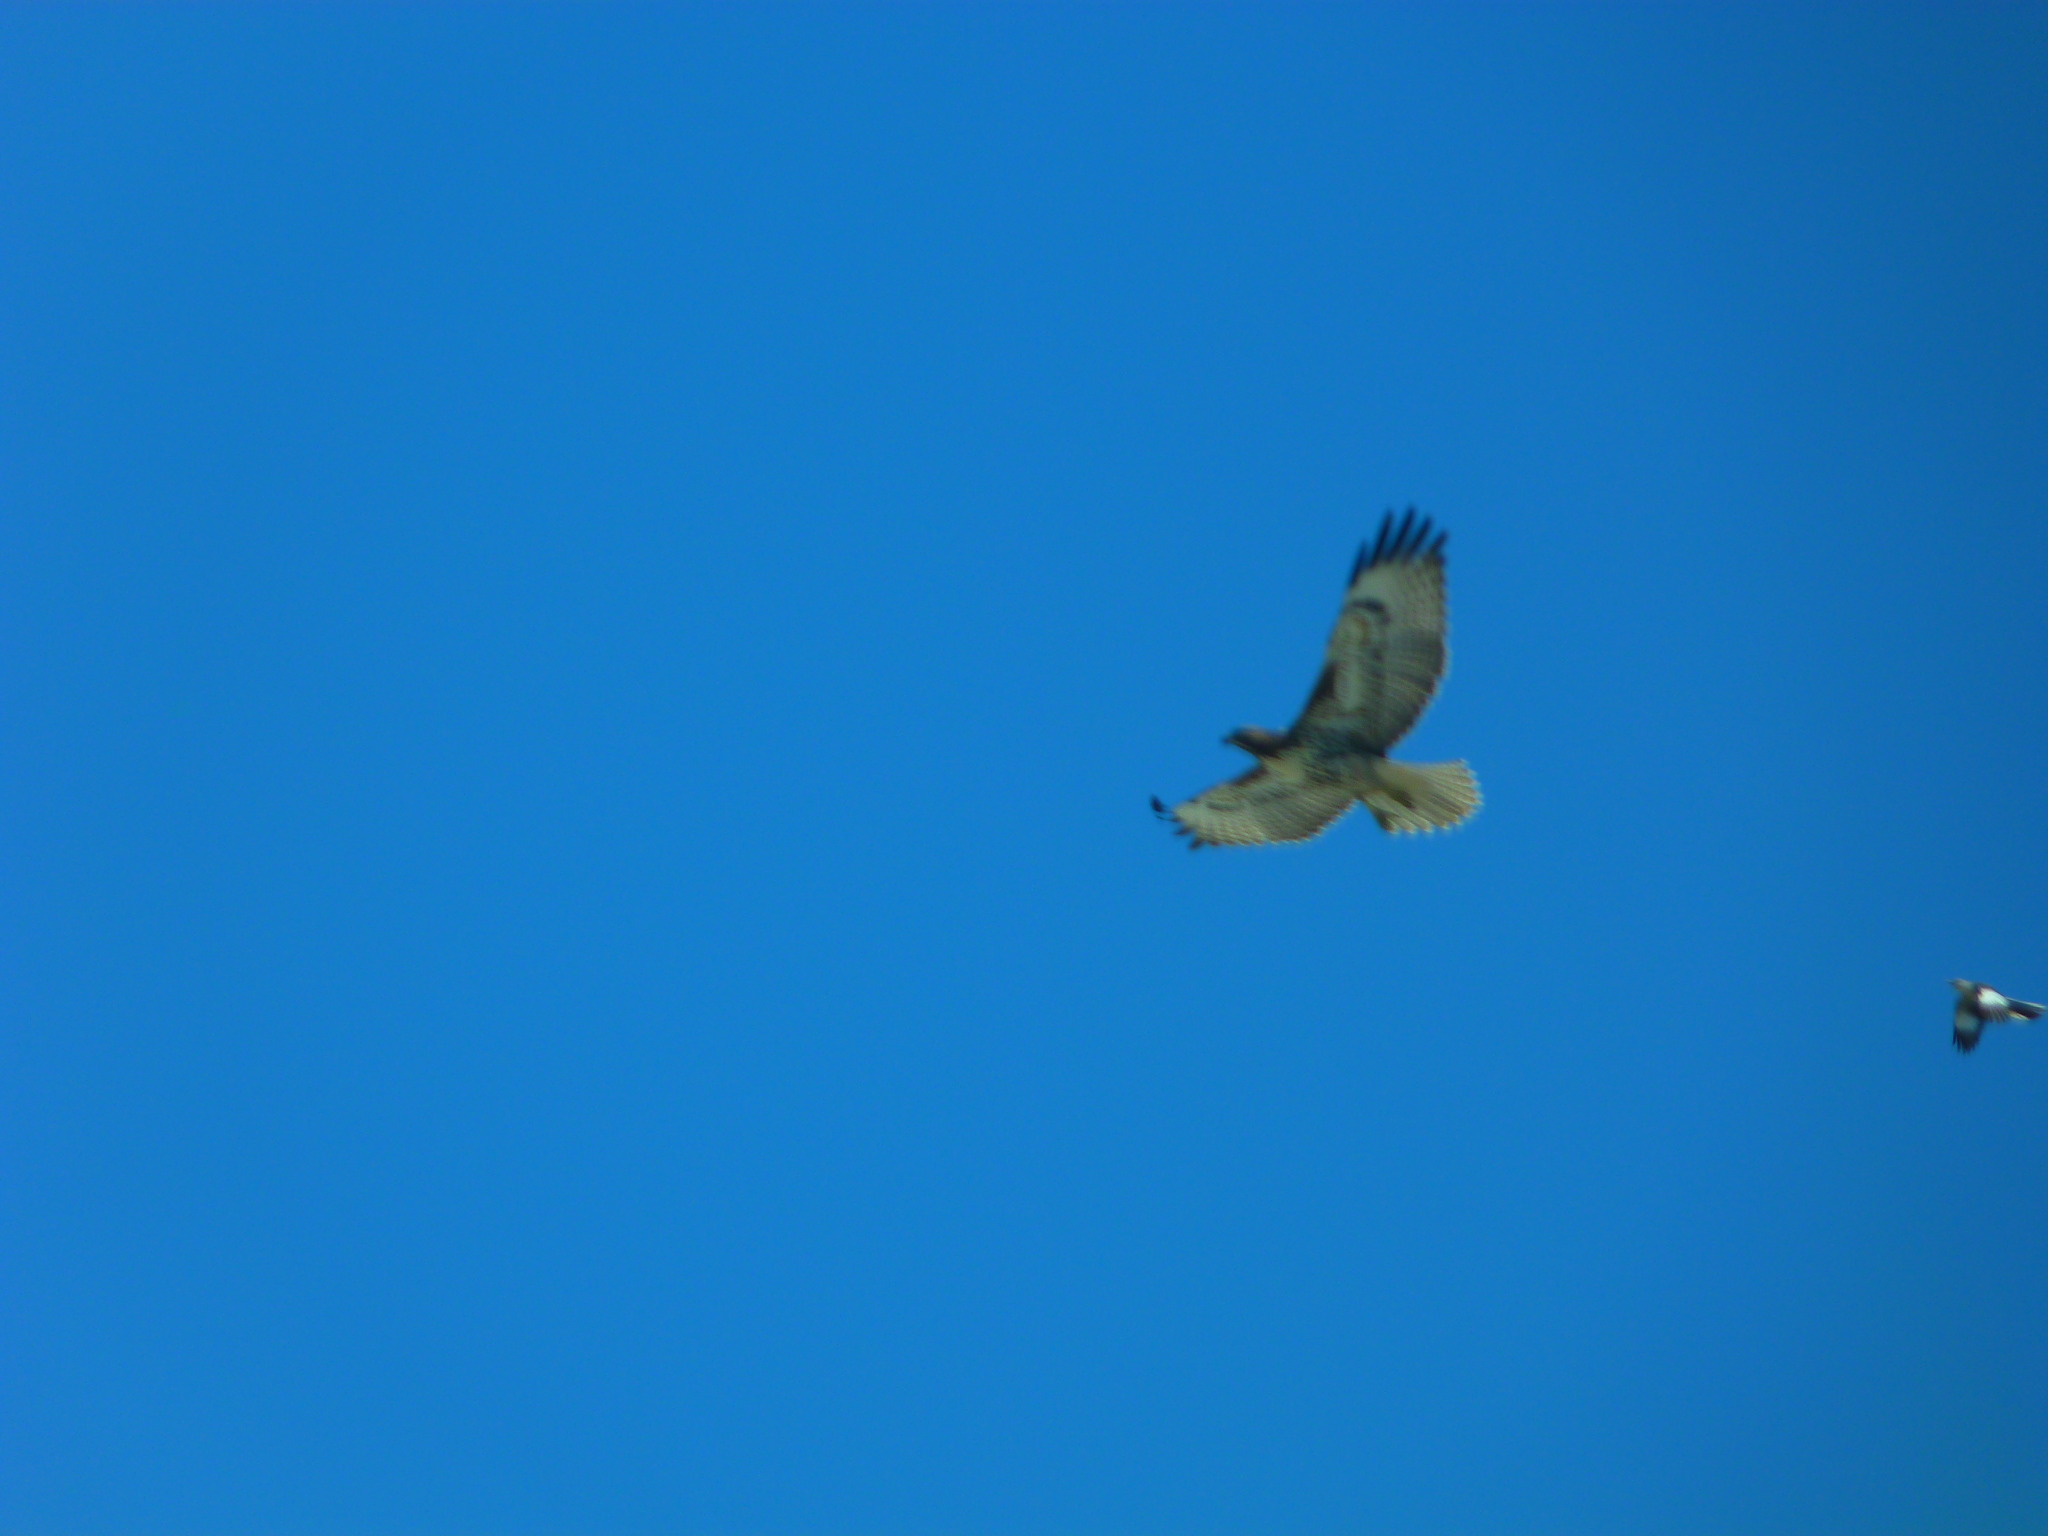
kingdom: Animalia
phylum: Chordata
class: Aves
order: Accipitriformes
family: Accipitridae
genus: Buteo
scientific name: Buteo jamaicensis
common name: Red-tailed hawk
